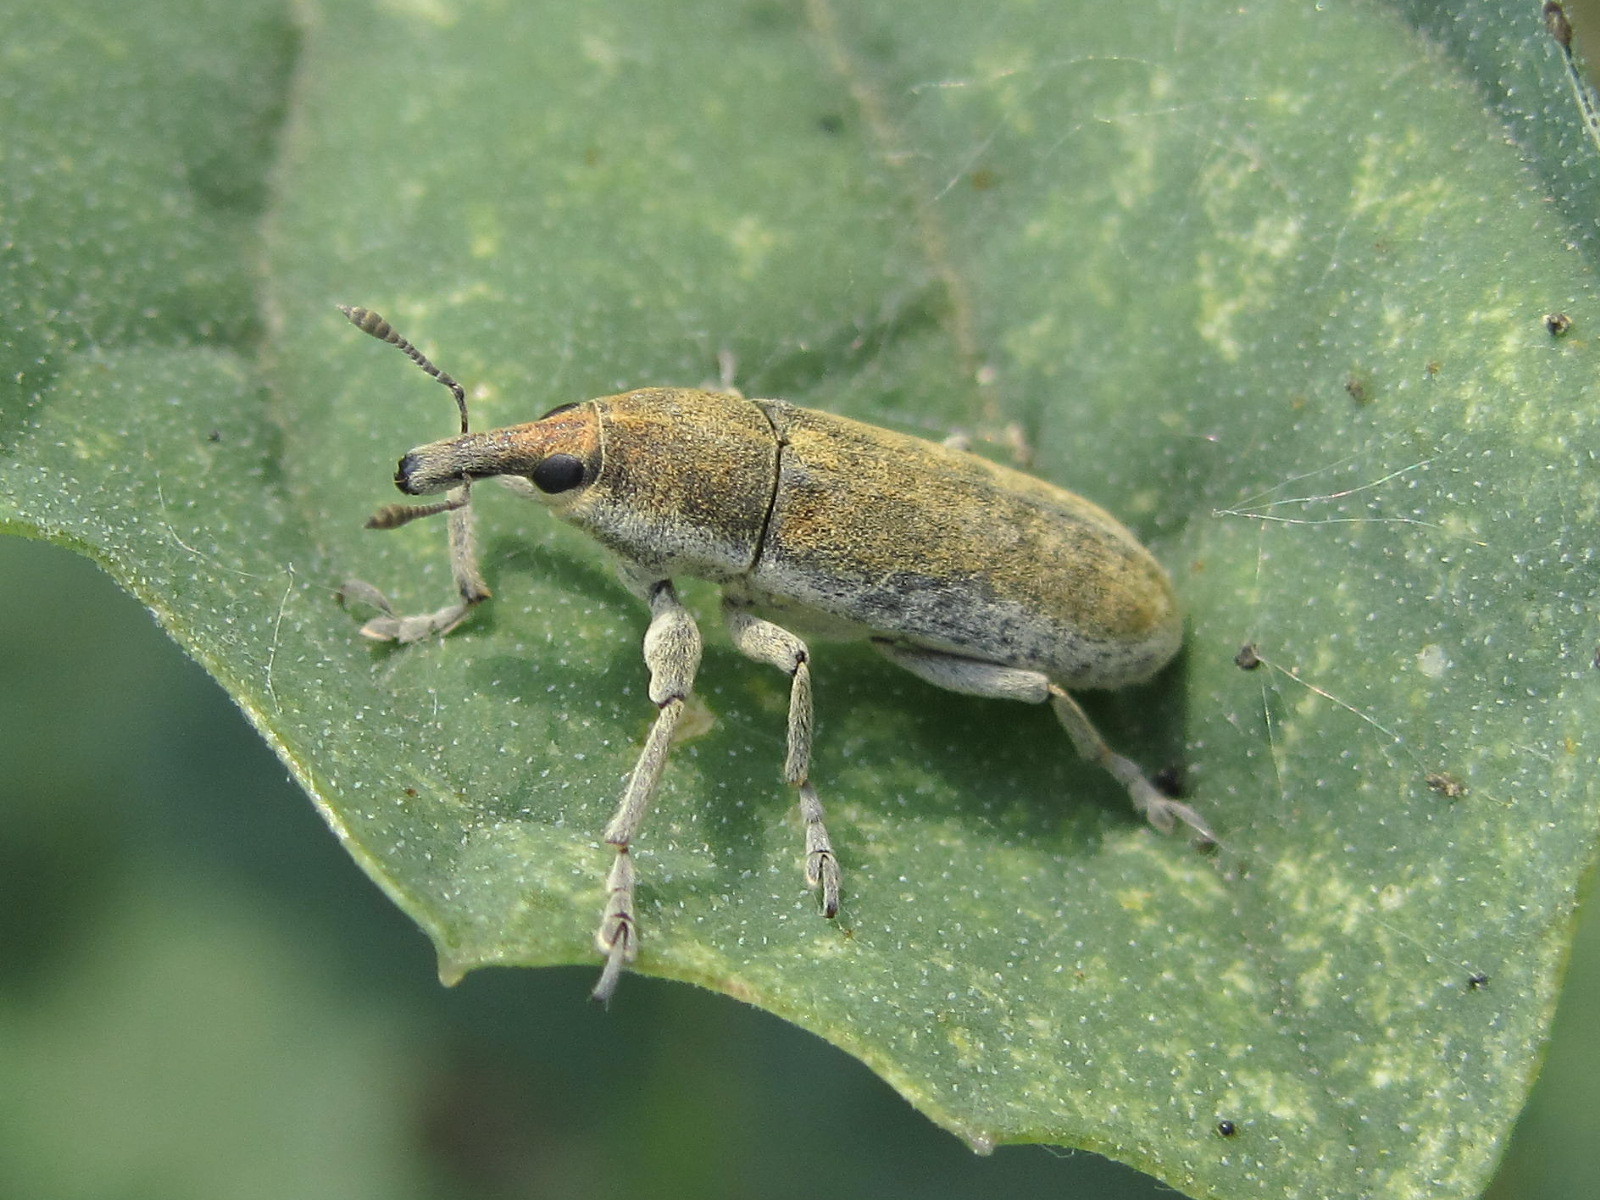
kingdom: Animalia
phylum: Arthropoda
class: Insecta
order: Coleoptera
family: Curculionidae
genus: Lixus
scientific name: Lixus rubicundus
